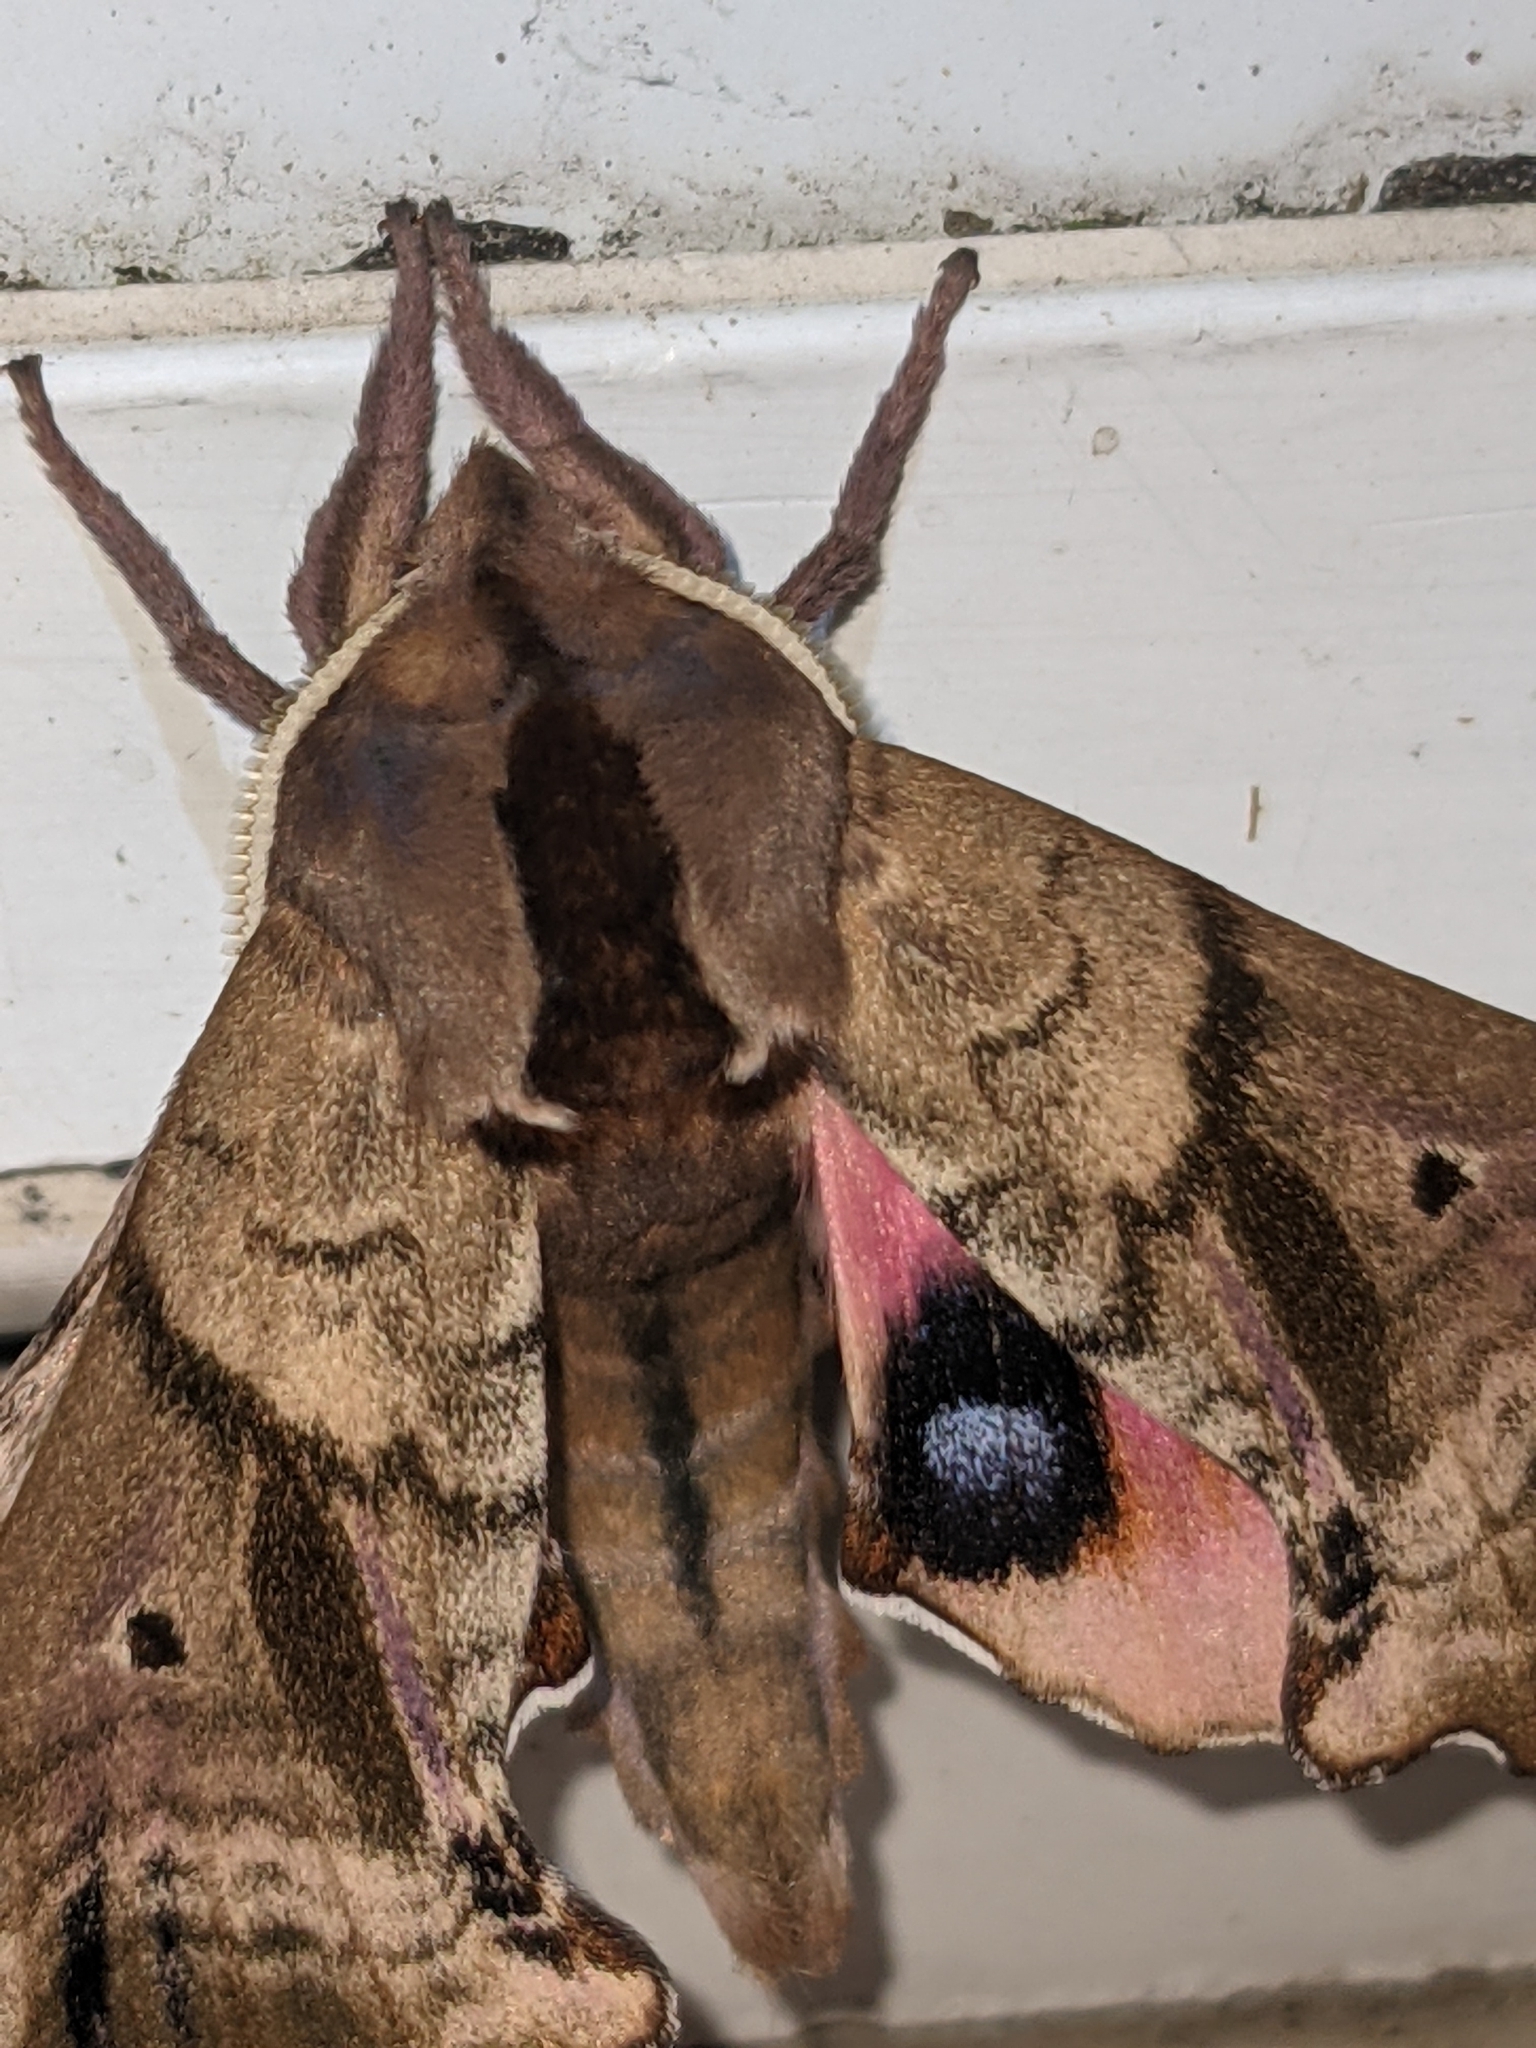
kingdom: Animalia
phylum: Arthropoda
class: Insecta
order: Lepidoptera
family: Sphingidae
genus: Paonias
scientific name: Paonias excaecata
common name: Blind-eyed sphinx
